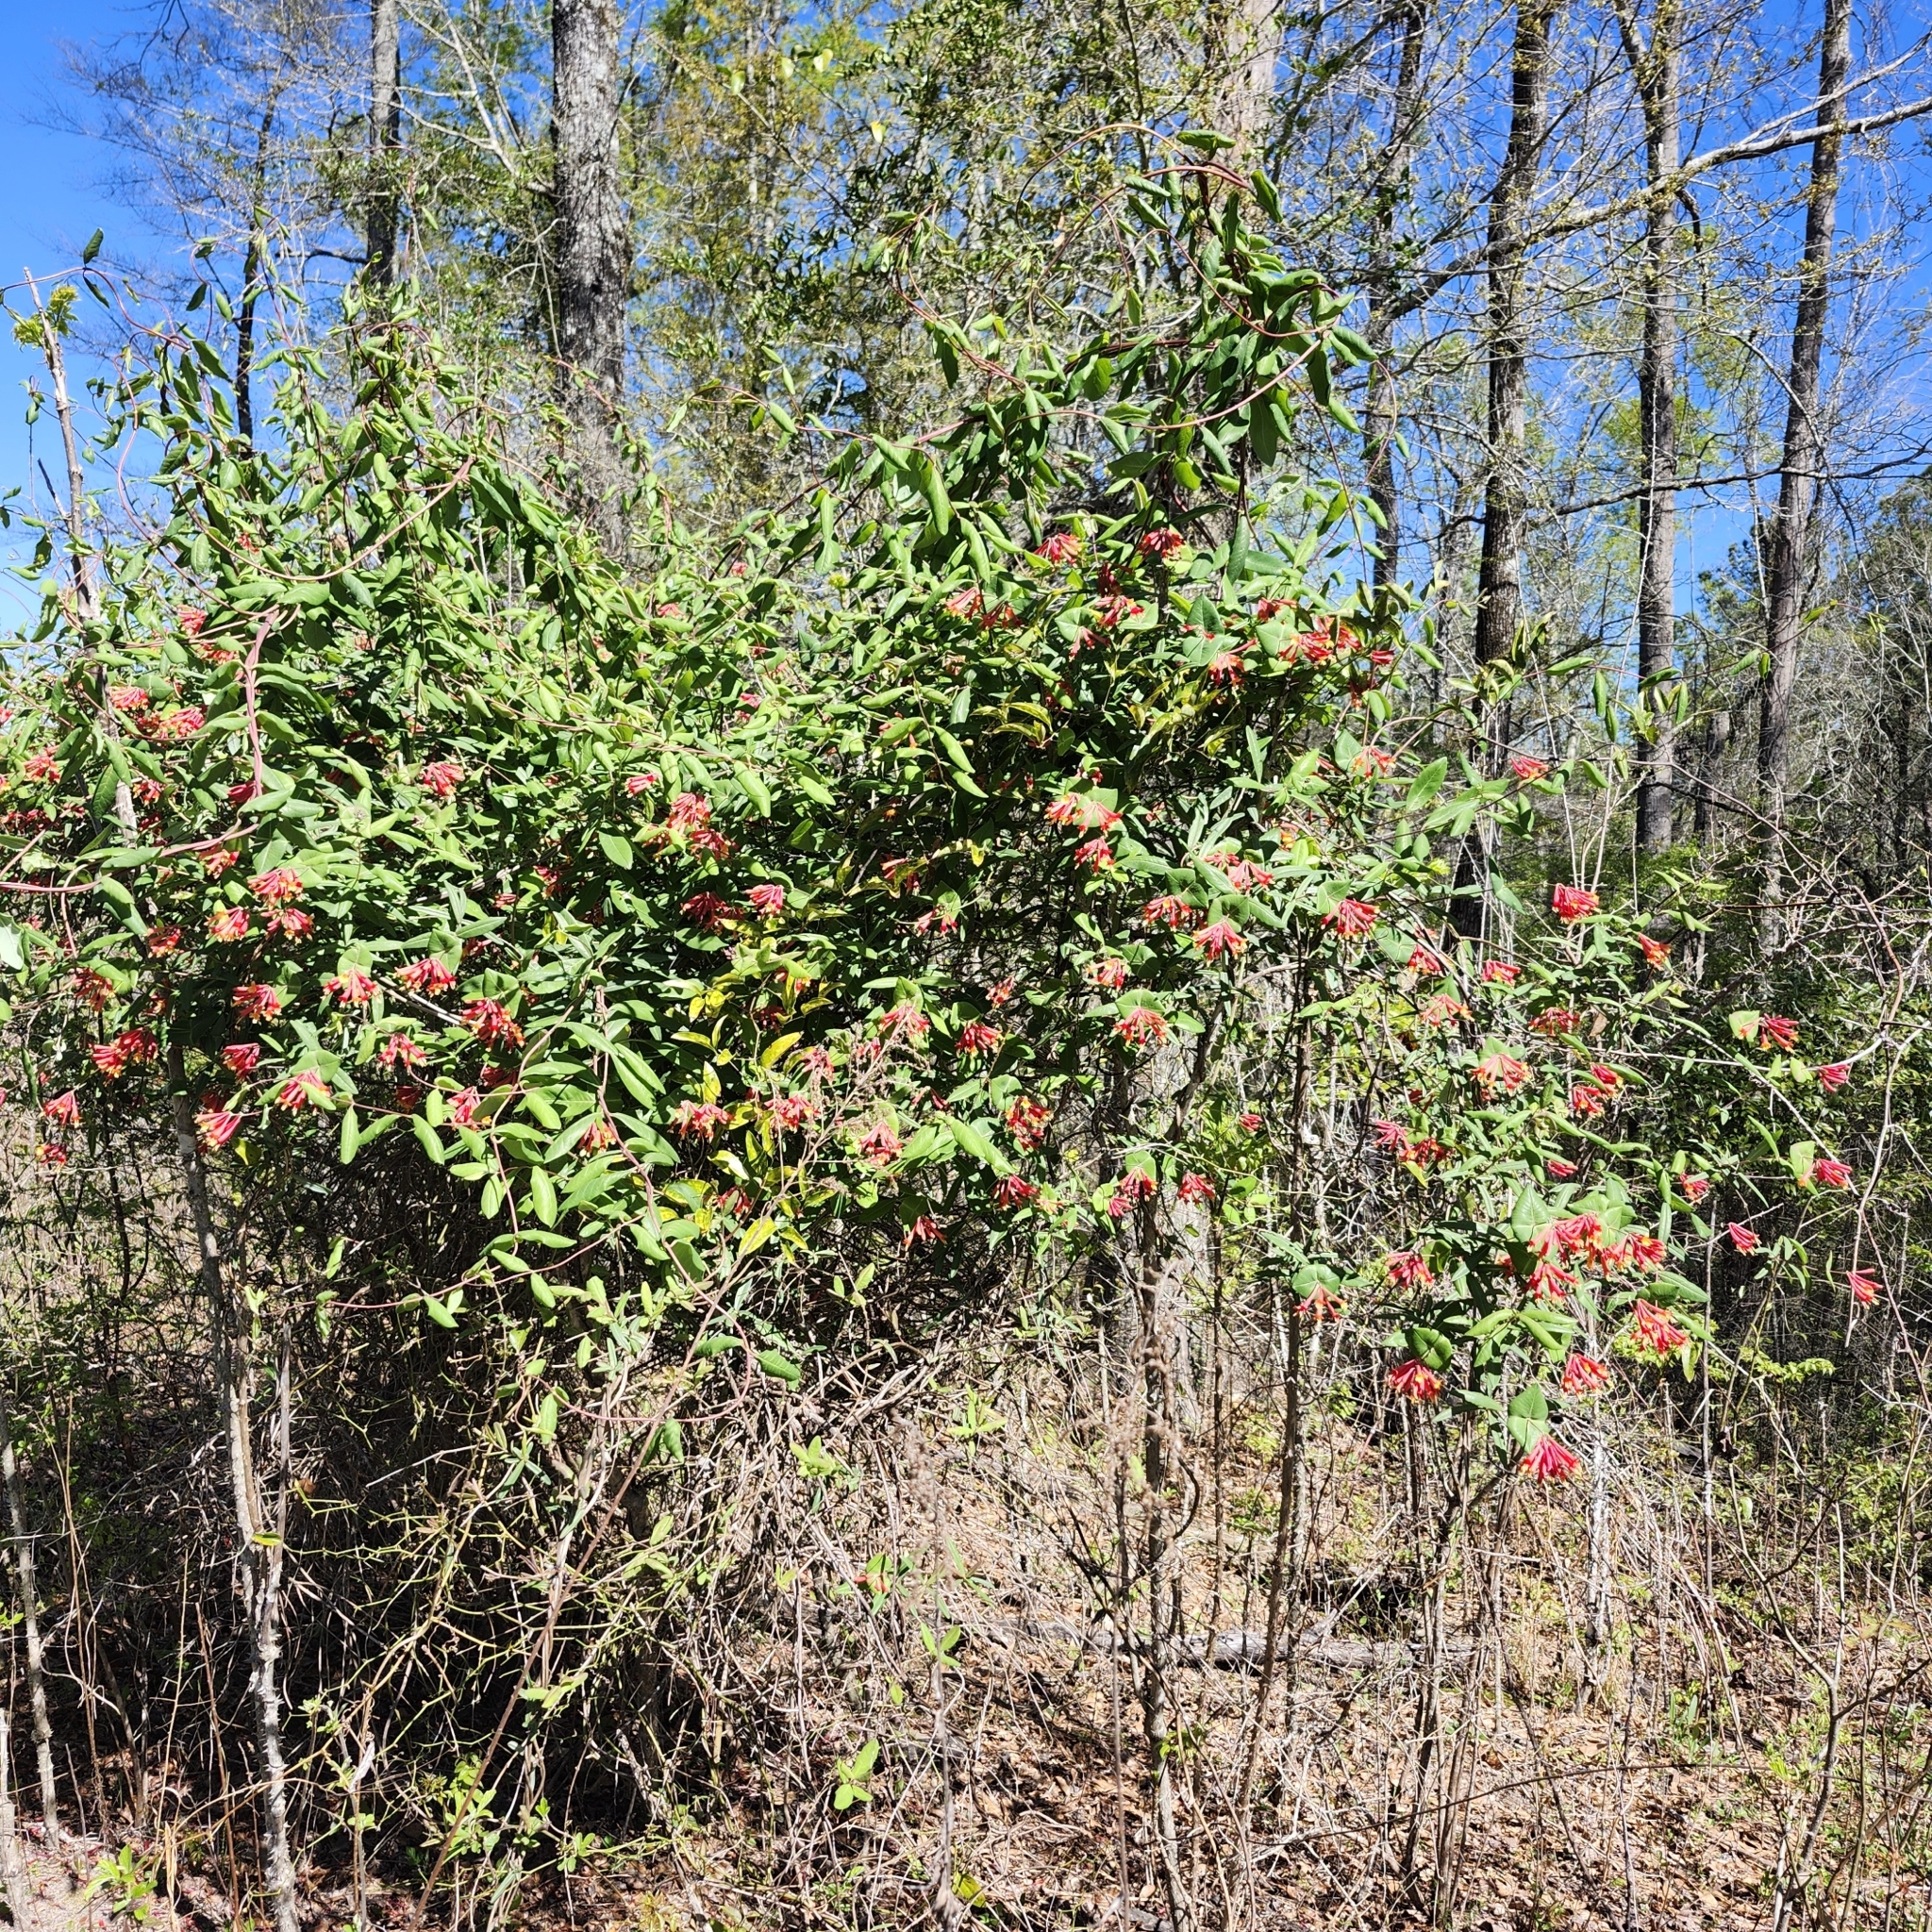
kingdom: Plantae
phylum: Tracheophyta
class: Magnoliopsida
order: Dipsacales
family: Caprifoliaceae
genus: Lonicera
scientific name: Lonicera sempervirens
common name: Coral honeysuckle
